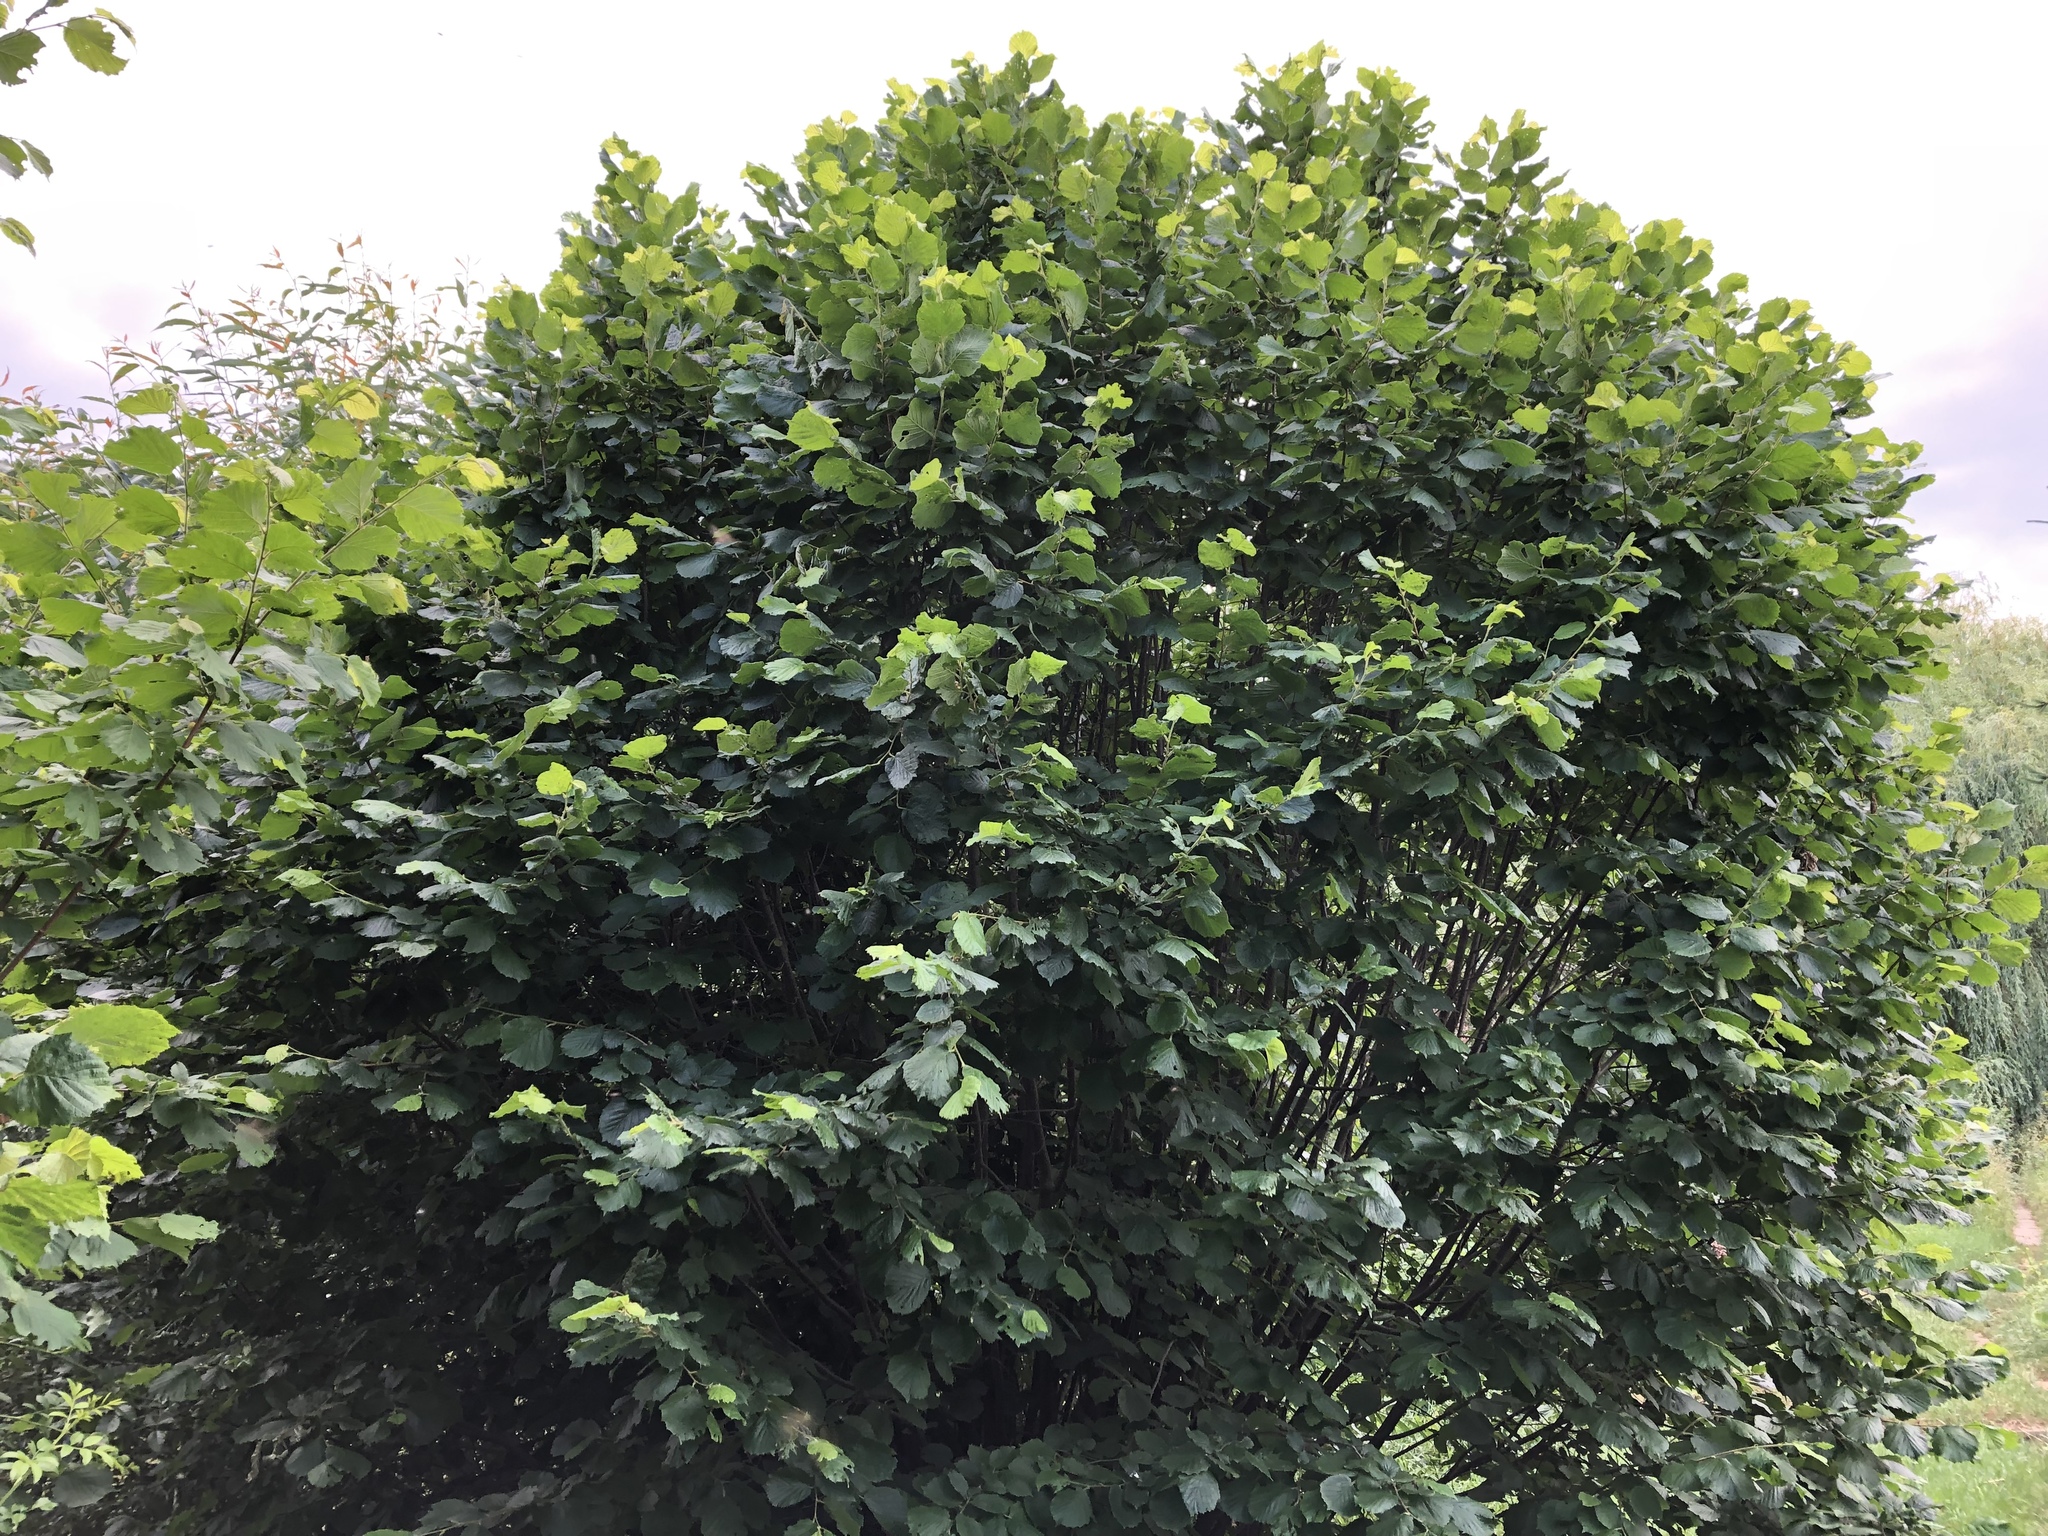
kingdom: Plantae
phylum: Tracheophyta
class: Magnoliopsida
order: Fagales
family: Betulaceae
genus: Corylus
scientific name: Corylus avellana
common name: European hazel
